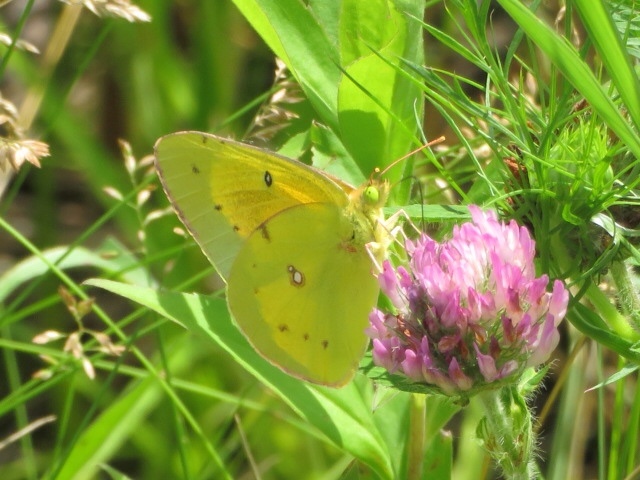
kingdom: Animalia
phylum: Arthropoda
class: Insecta
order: Lepidoptera
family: Pieridae
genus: Colias
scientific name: Colias eurytheme
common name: Alfalfa butterfly
